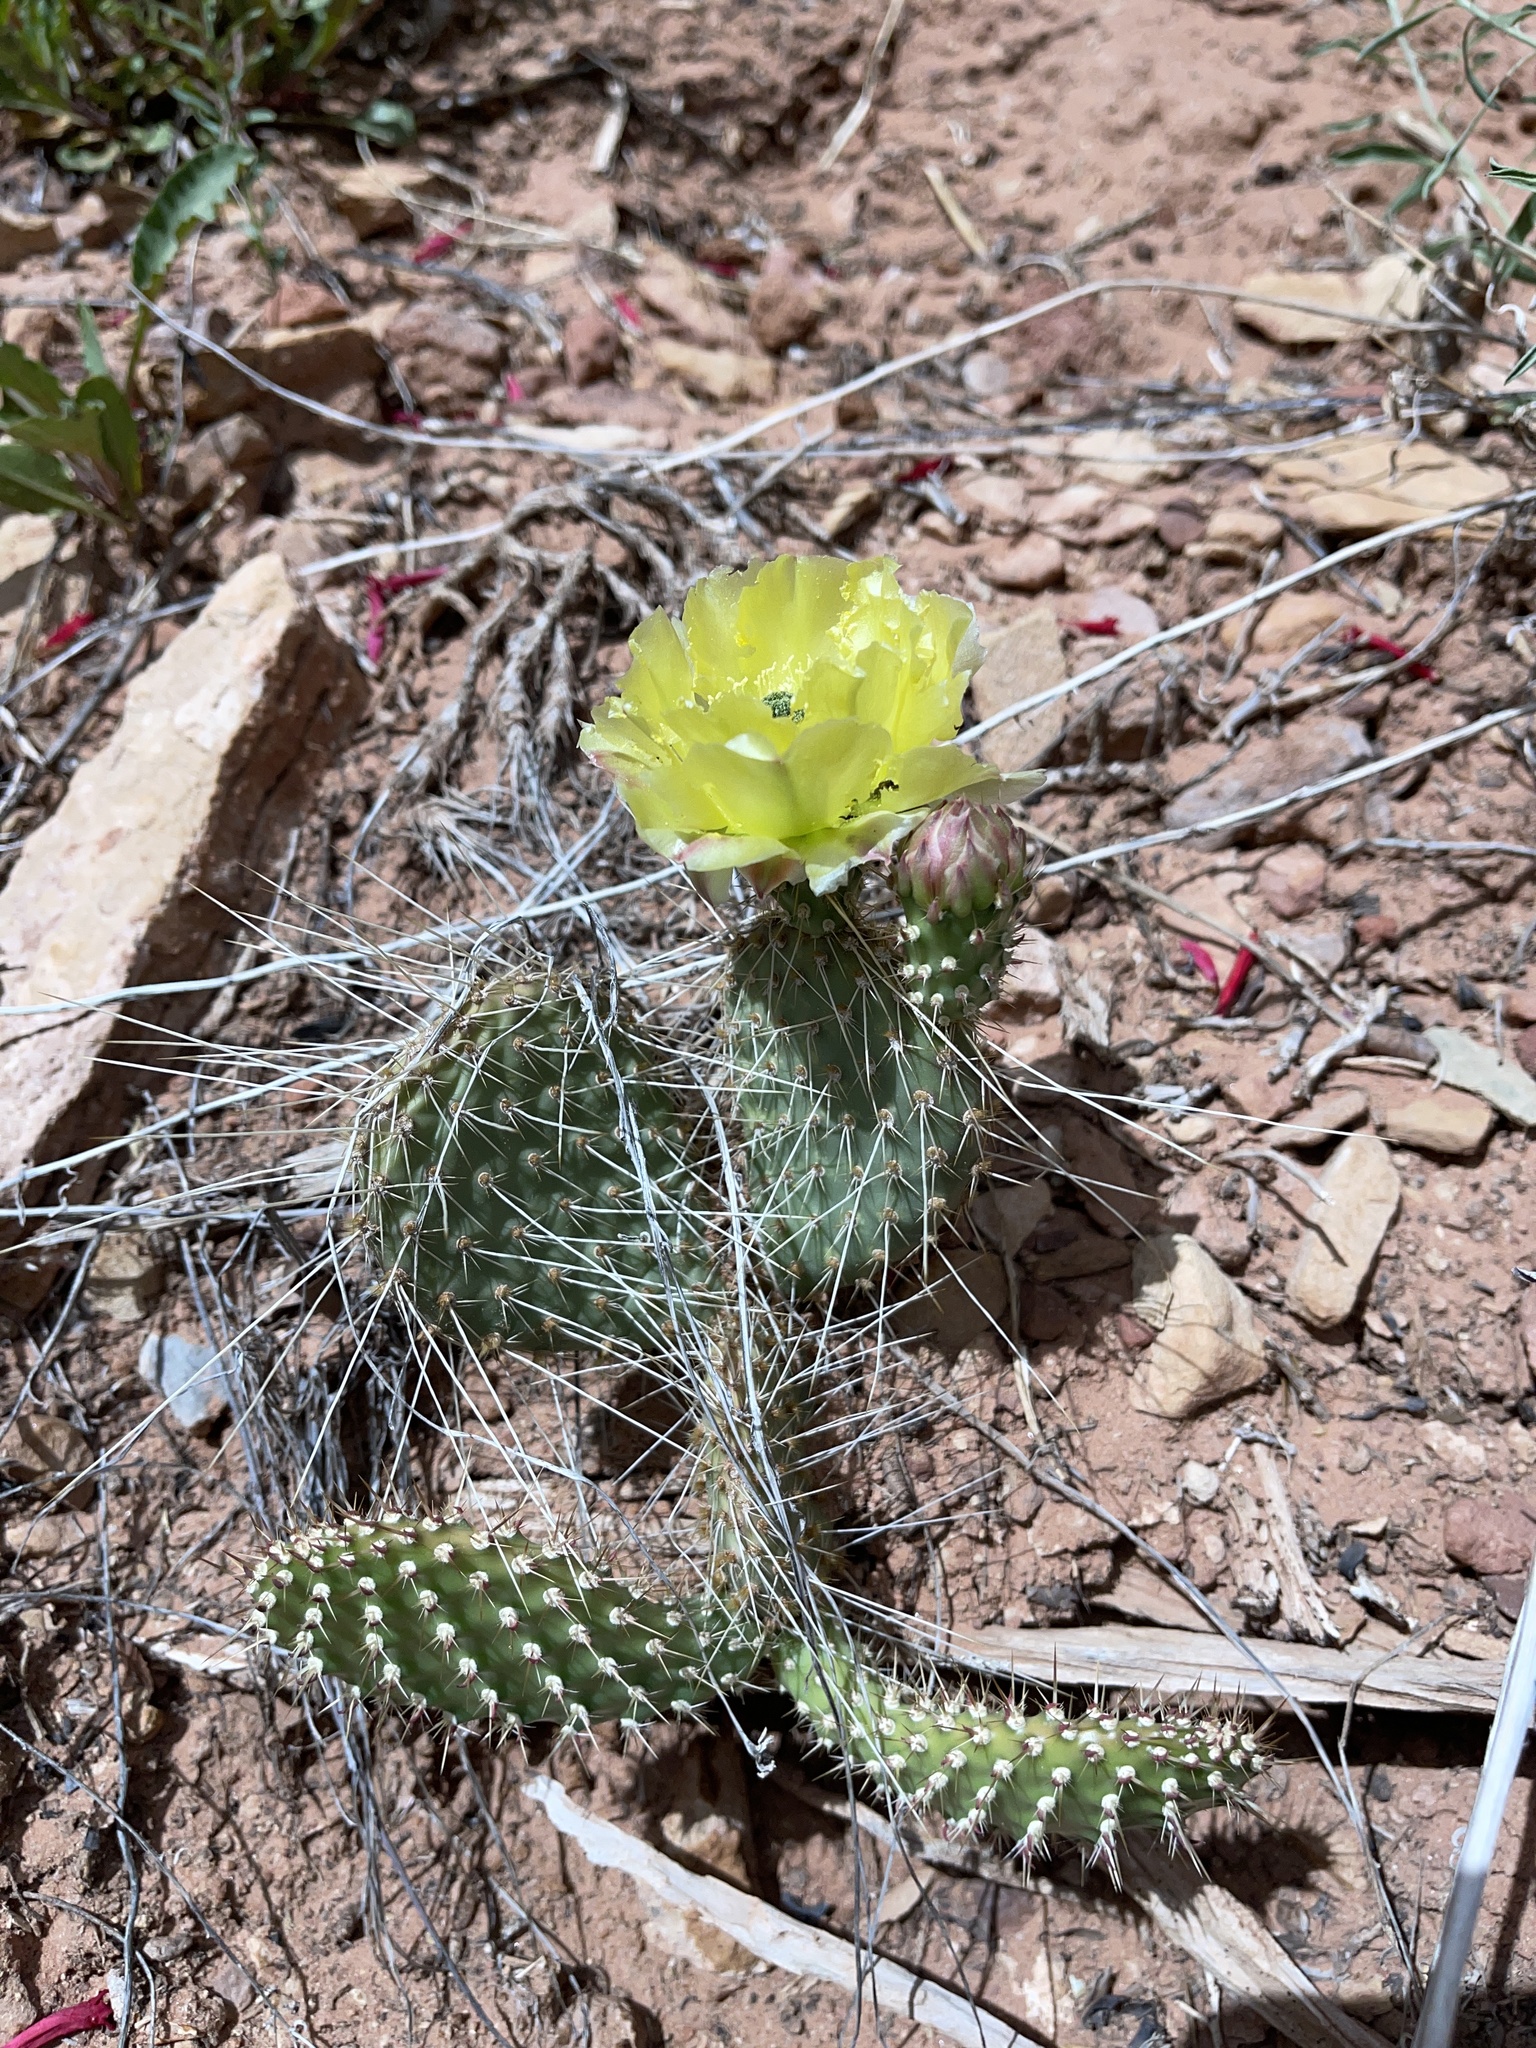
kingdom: Plantae
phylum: Tracheophyta
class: Magnoliopsida
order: Caryophyllales
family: Cactaceae
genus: Opuntia
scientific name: Opuntia polyacantha
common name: Plains prickly-pear
